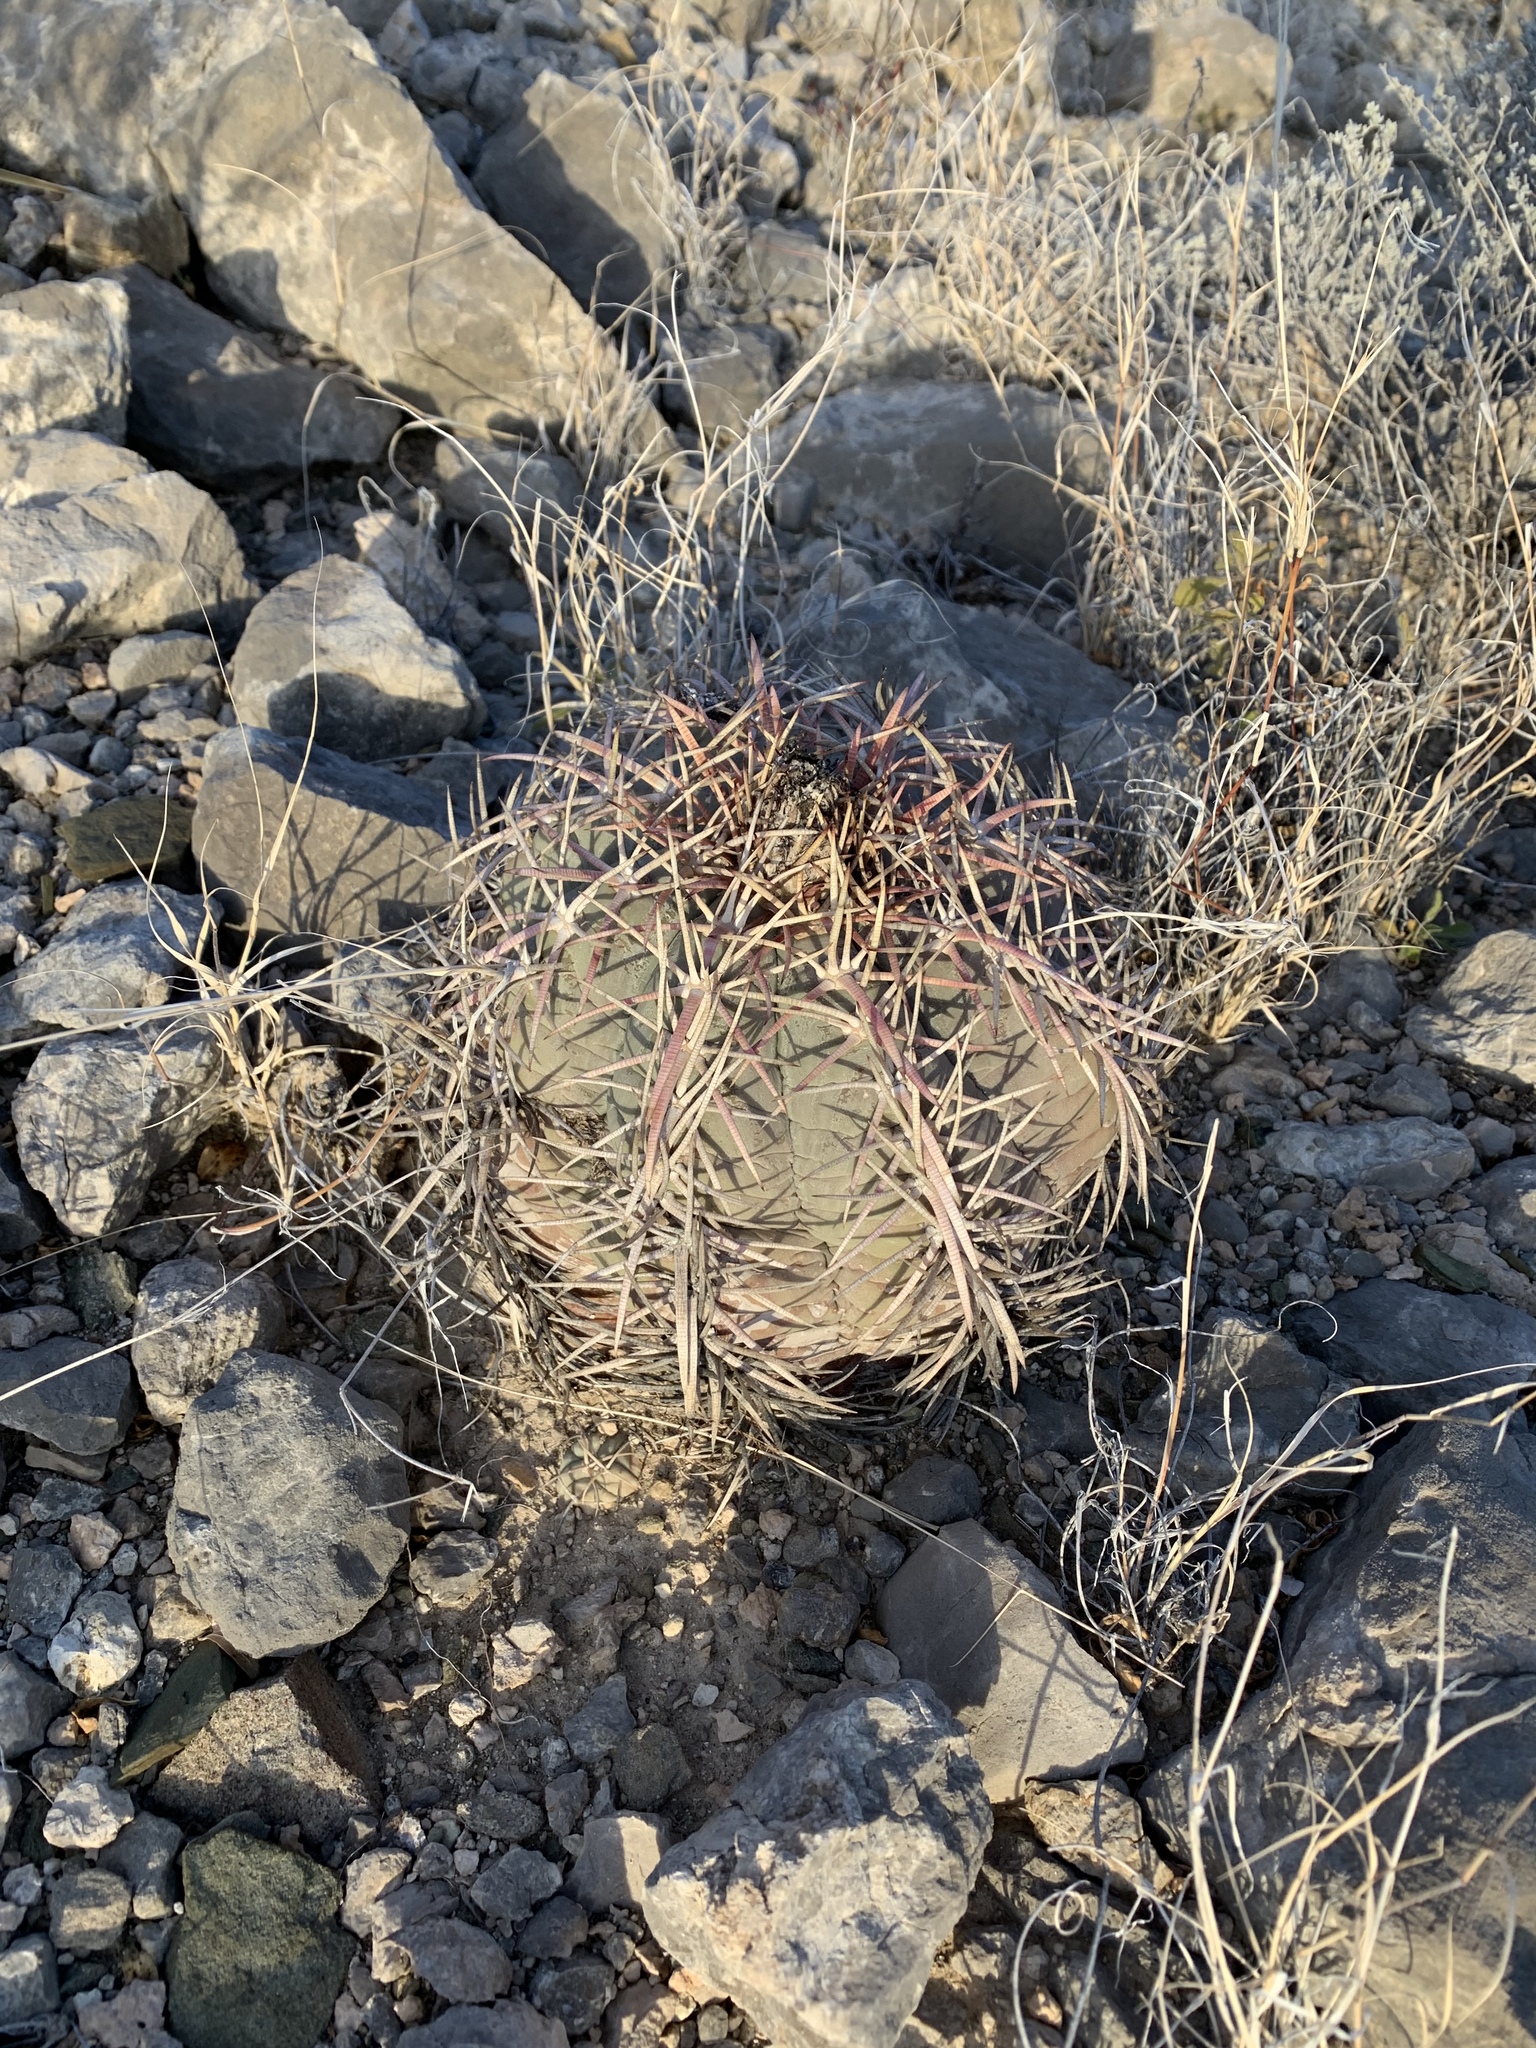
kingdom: Plantae
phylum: Tracheophyta
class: Magnoliopsida
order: Caryophyllales
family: Cactaceae
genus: Echinocactus
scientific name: Echinocactus horizonthalonius
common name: Devilshead
